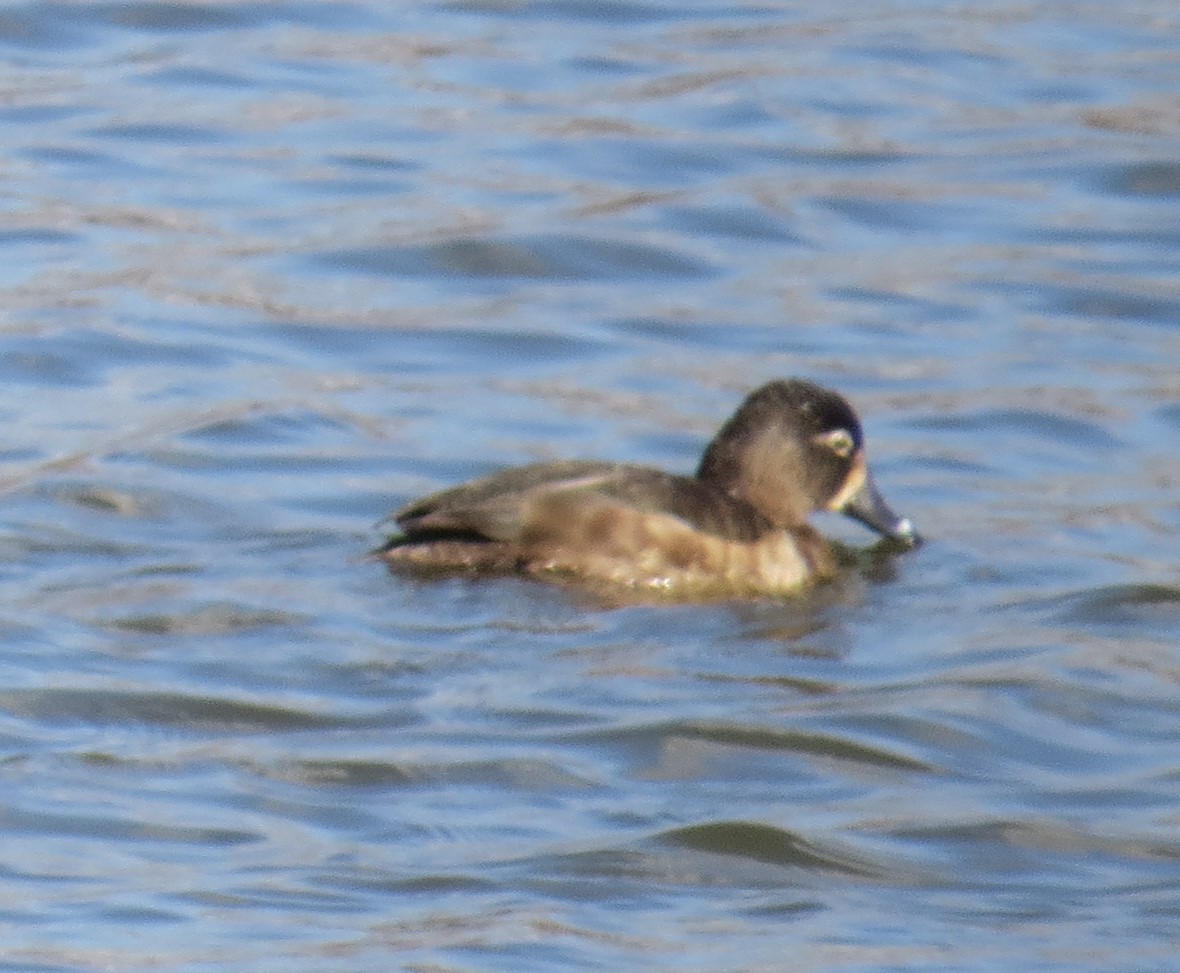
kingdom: Animalia
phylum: Chordata
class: Aves
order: Anseriformes
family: Anatidae
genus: Aythya
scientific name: Aythya collaris
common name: Ring-necked duck
